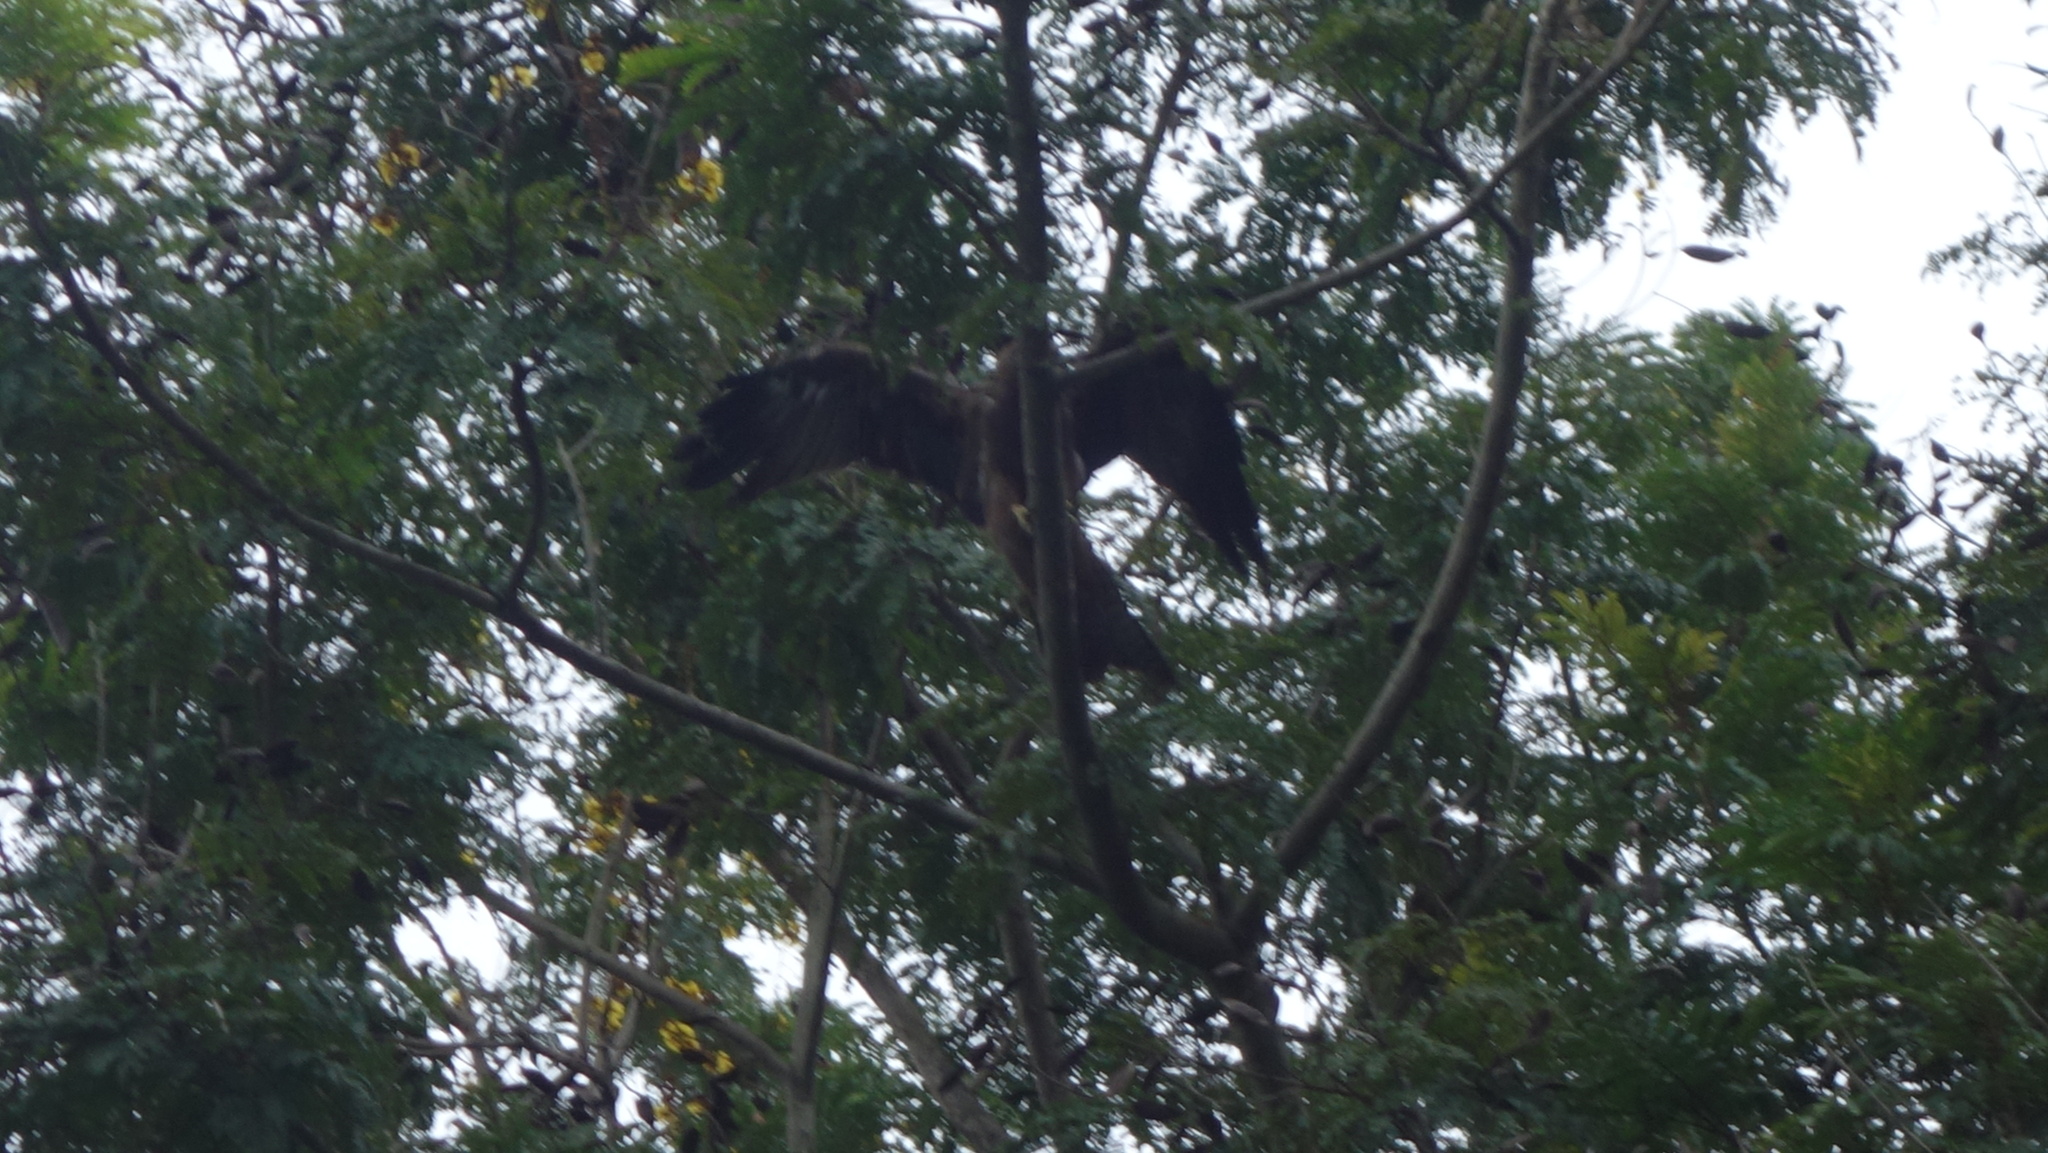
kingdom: Animalia
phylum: Chordata
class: Aves
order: Accipitriformes
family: Accipitridae
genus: Milvus
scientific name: Milvus migrans
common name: Black kite
